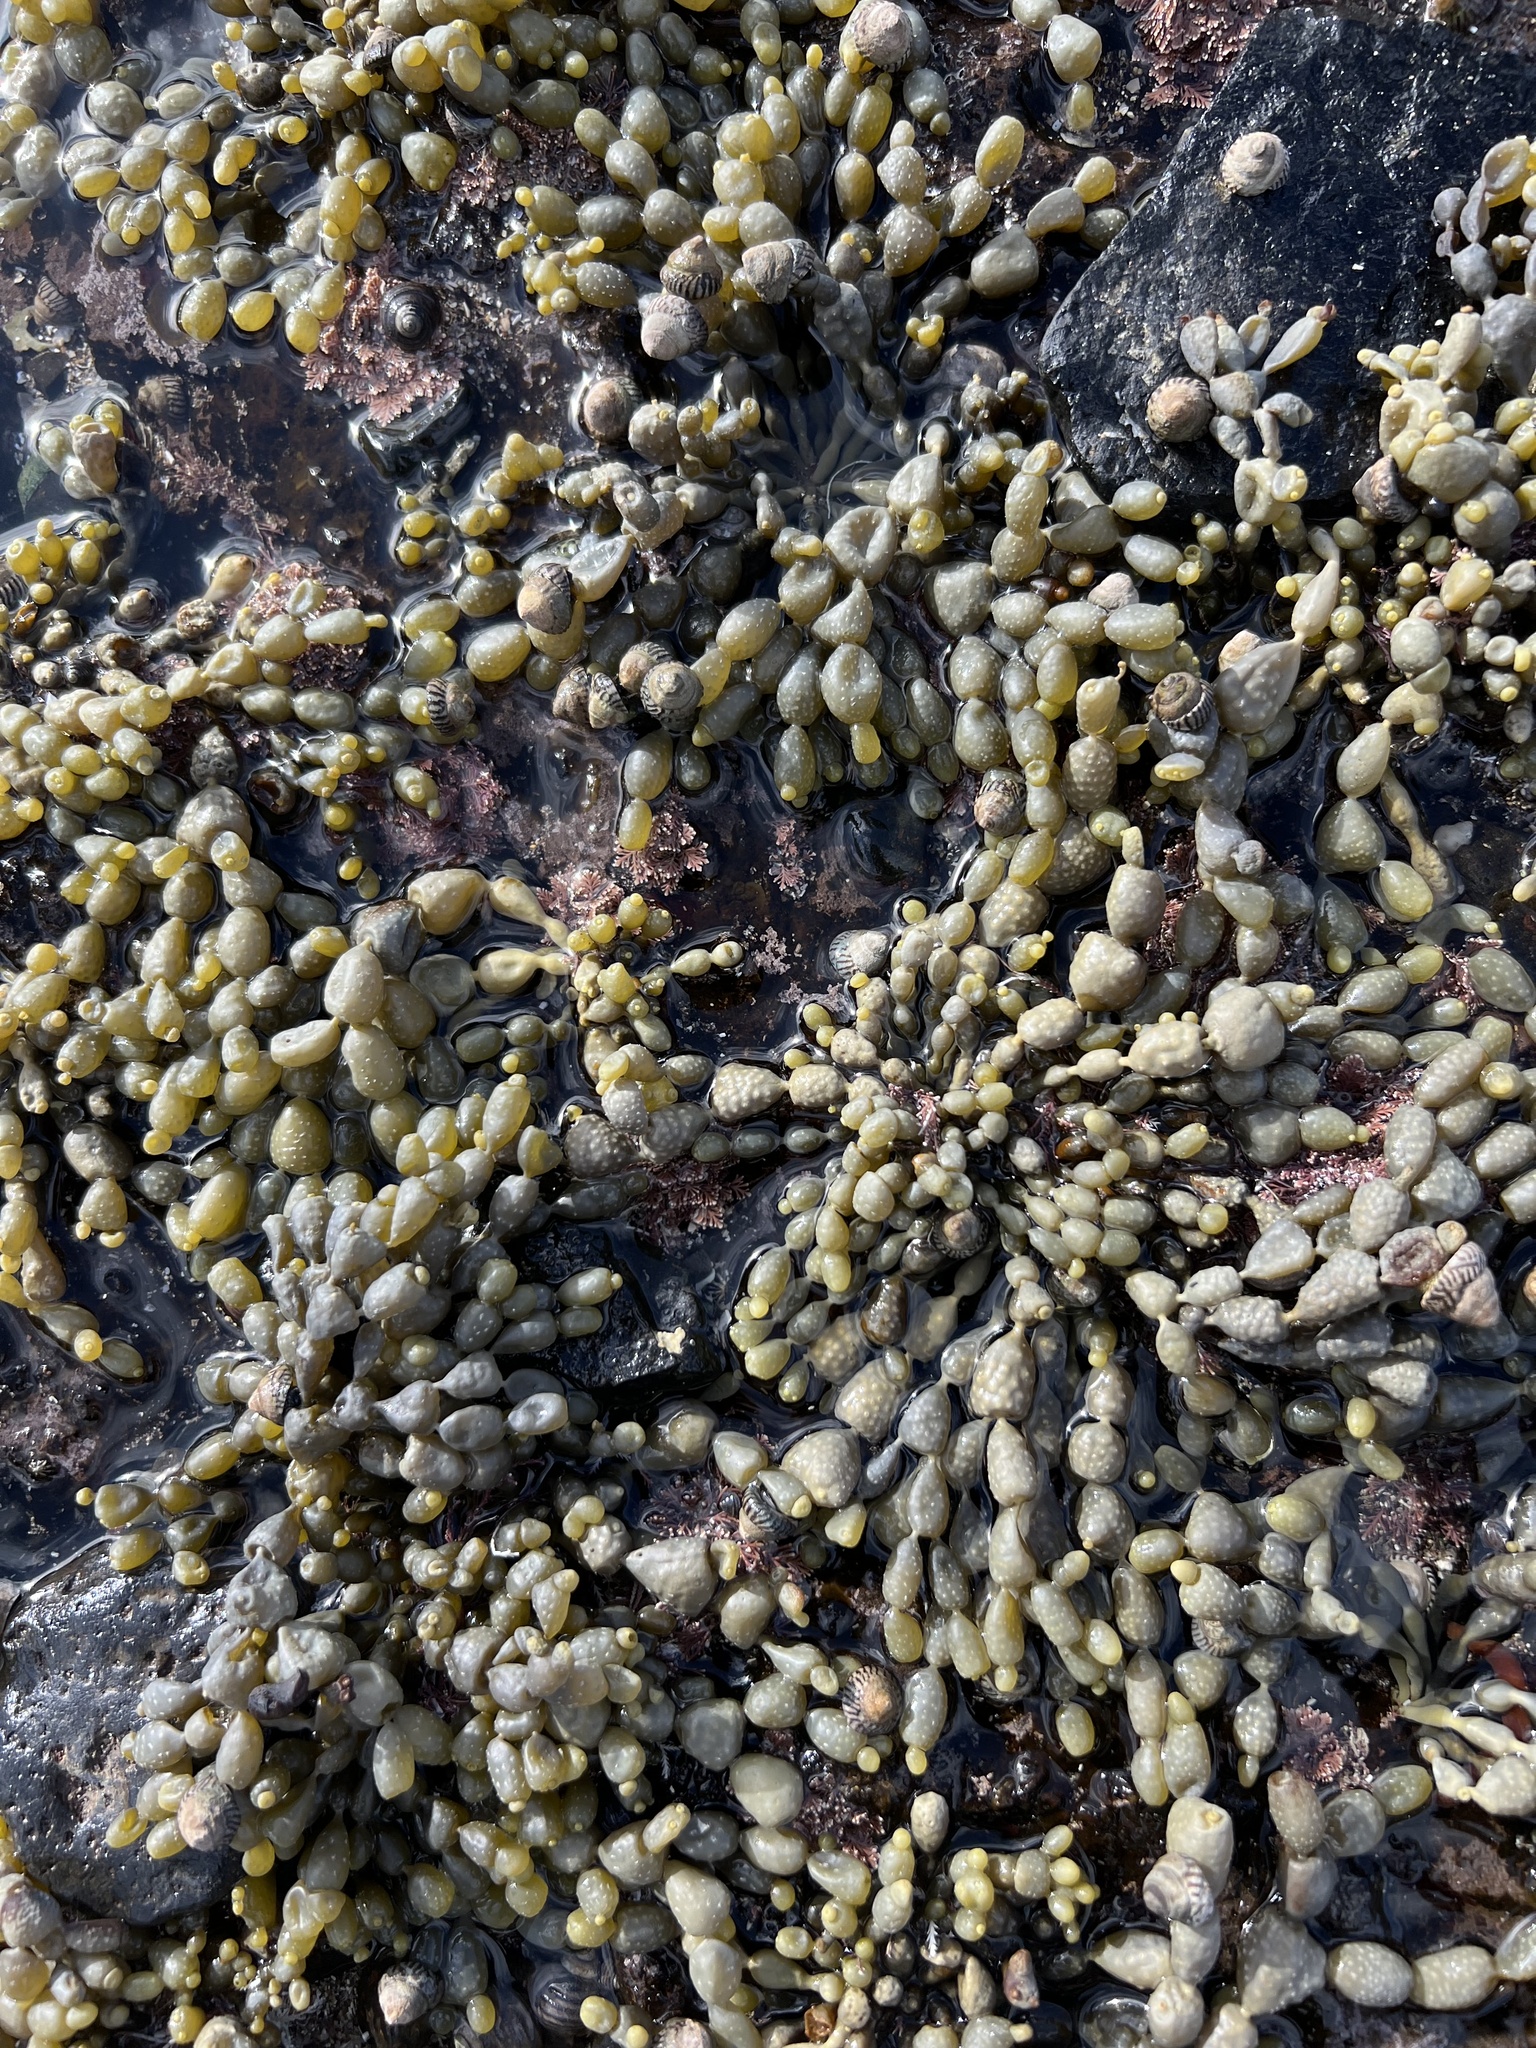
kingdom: Chromista
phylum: Ochrophyta
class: Phaeophyceae
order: Fucales
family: Hormosiraceae
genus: Hormosira
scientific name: Hormosira banksii
